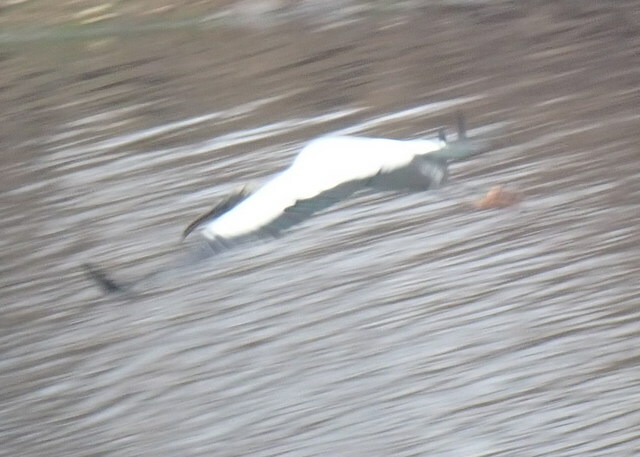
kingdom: Animalia
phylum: Chordata
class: Aves
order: Ciconiiformes
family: Ciconiidae
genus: Mycteria
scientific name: Mycteria americana
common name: Wood stork
